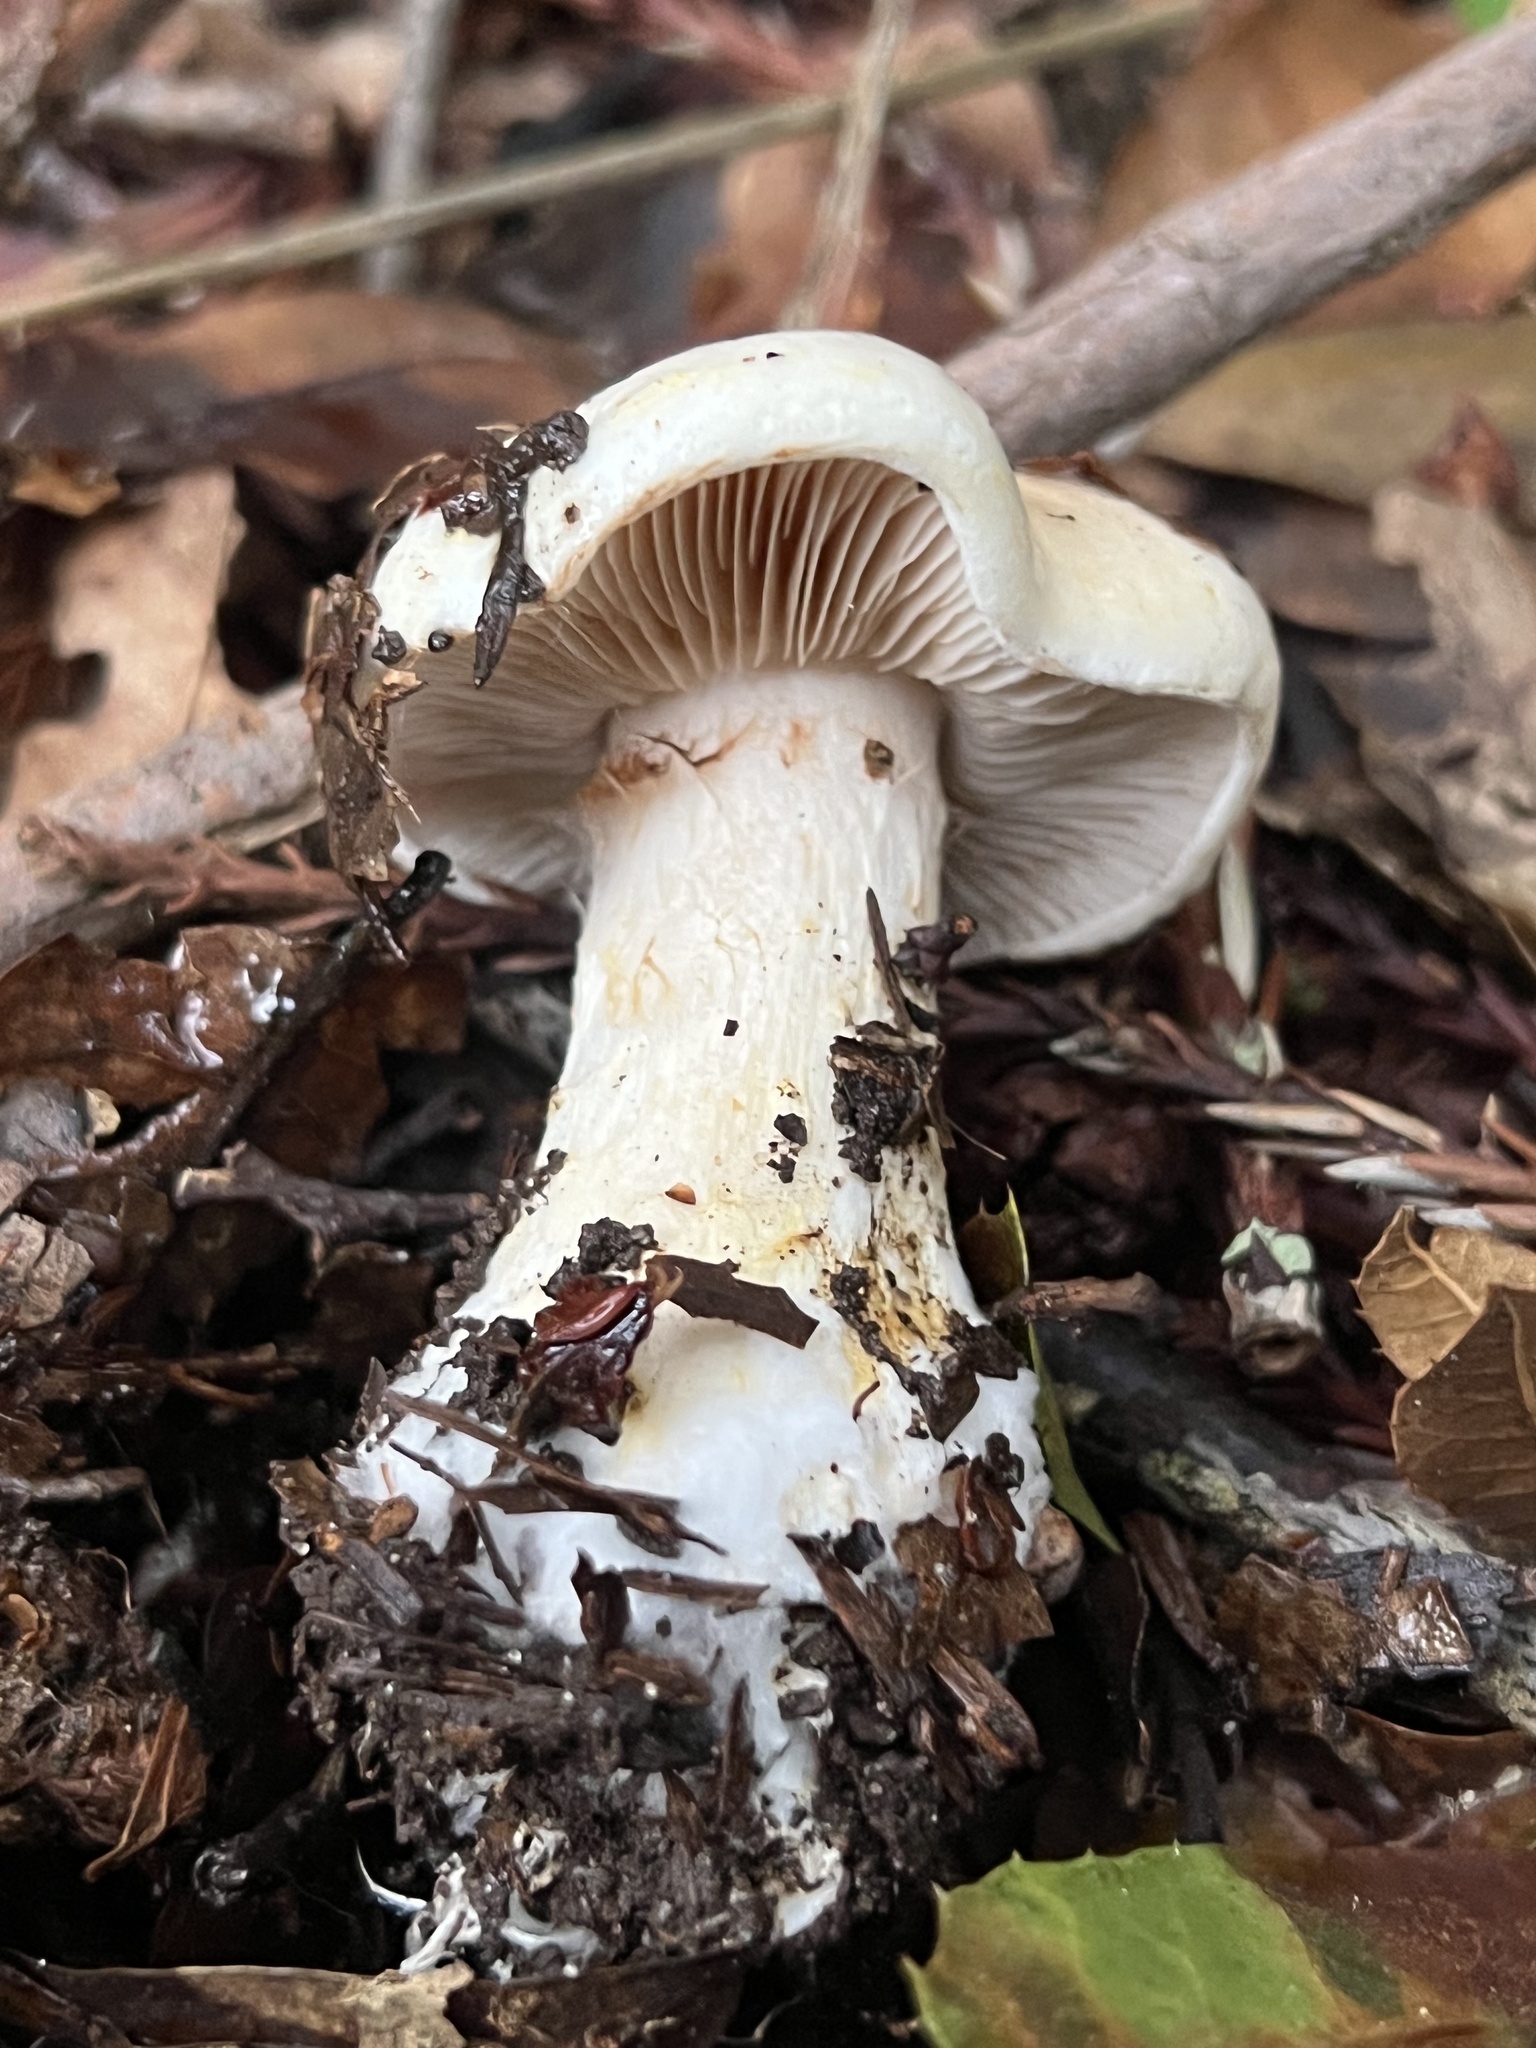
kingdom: Fungi
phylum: Basidiomycota
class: Agaricomycetes
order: Agaricales
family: Cortinariaceae
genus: Phlegmacium
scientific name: Phlegmacium albofragrans
